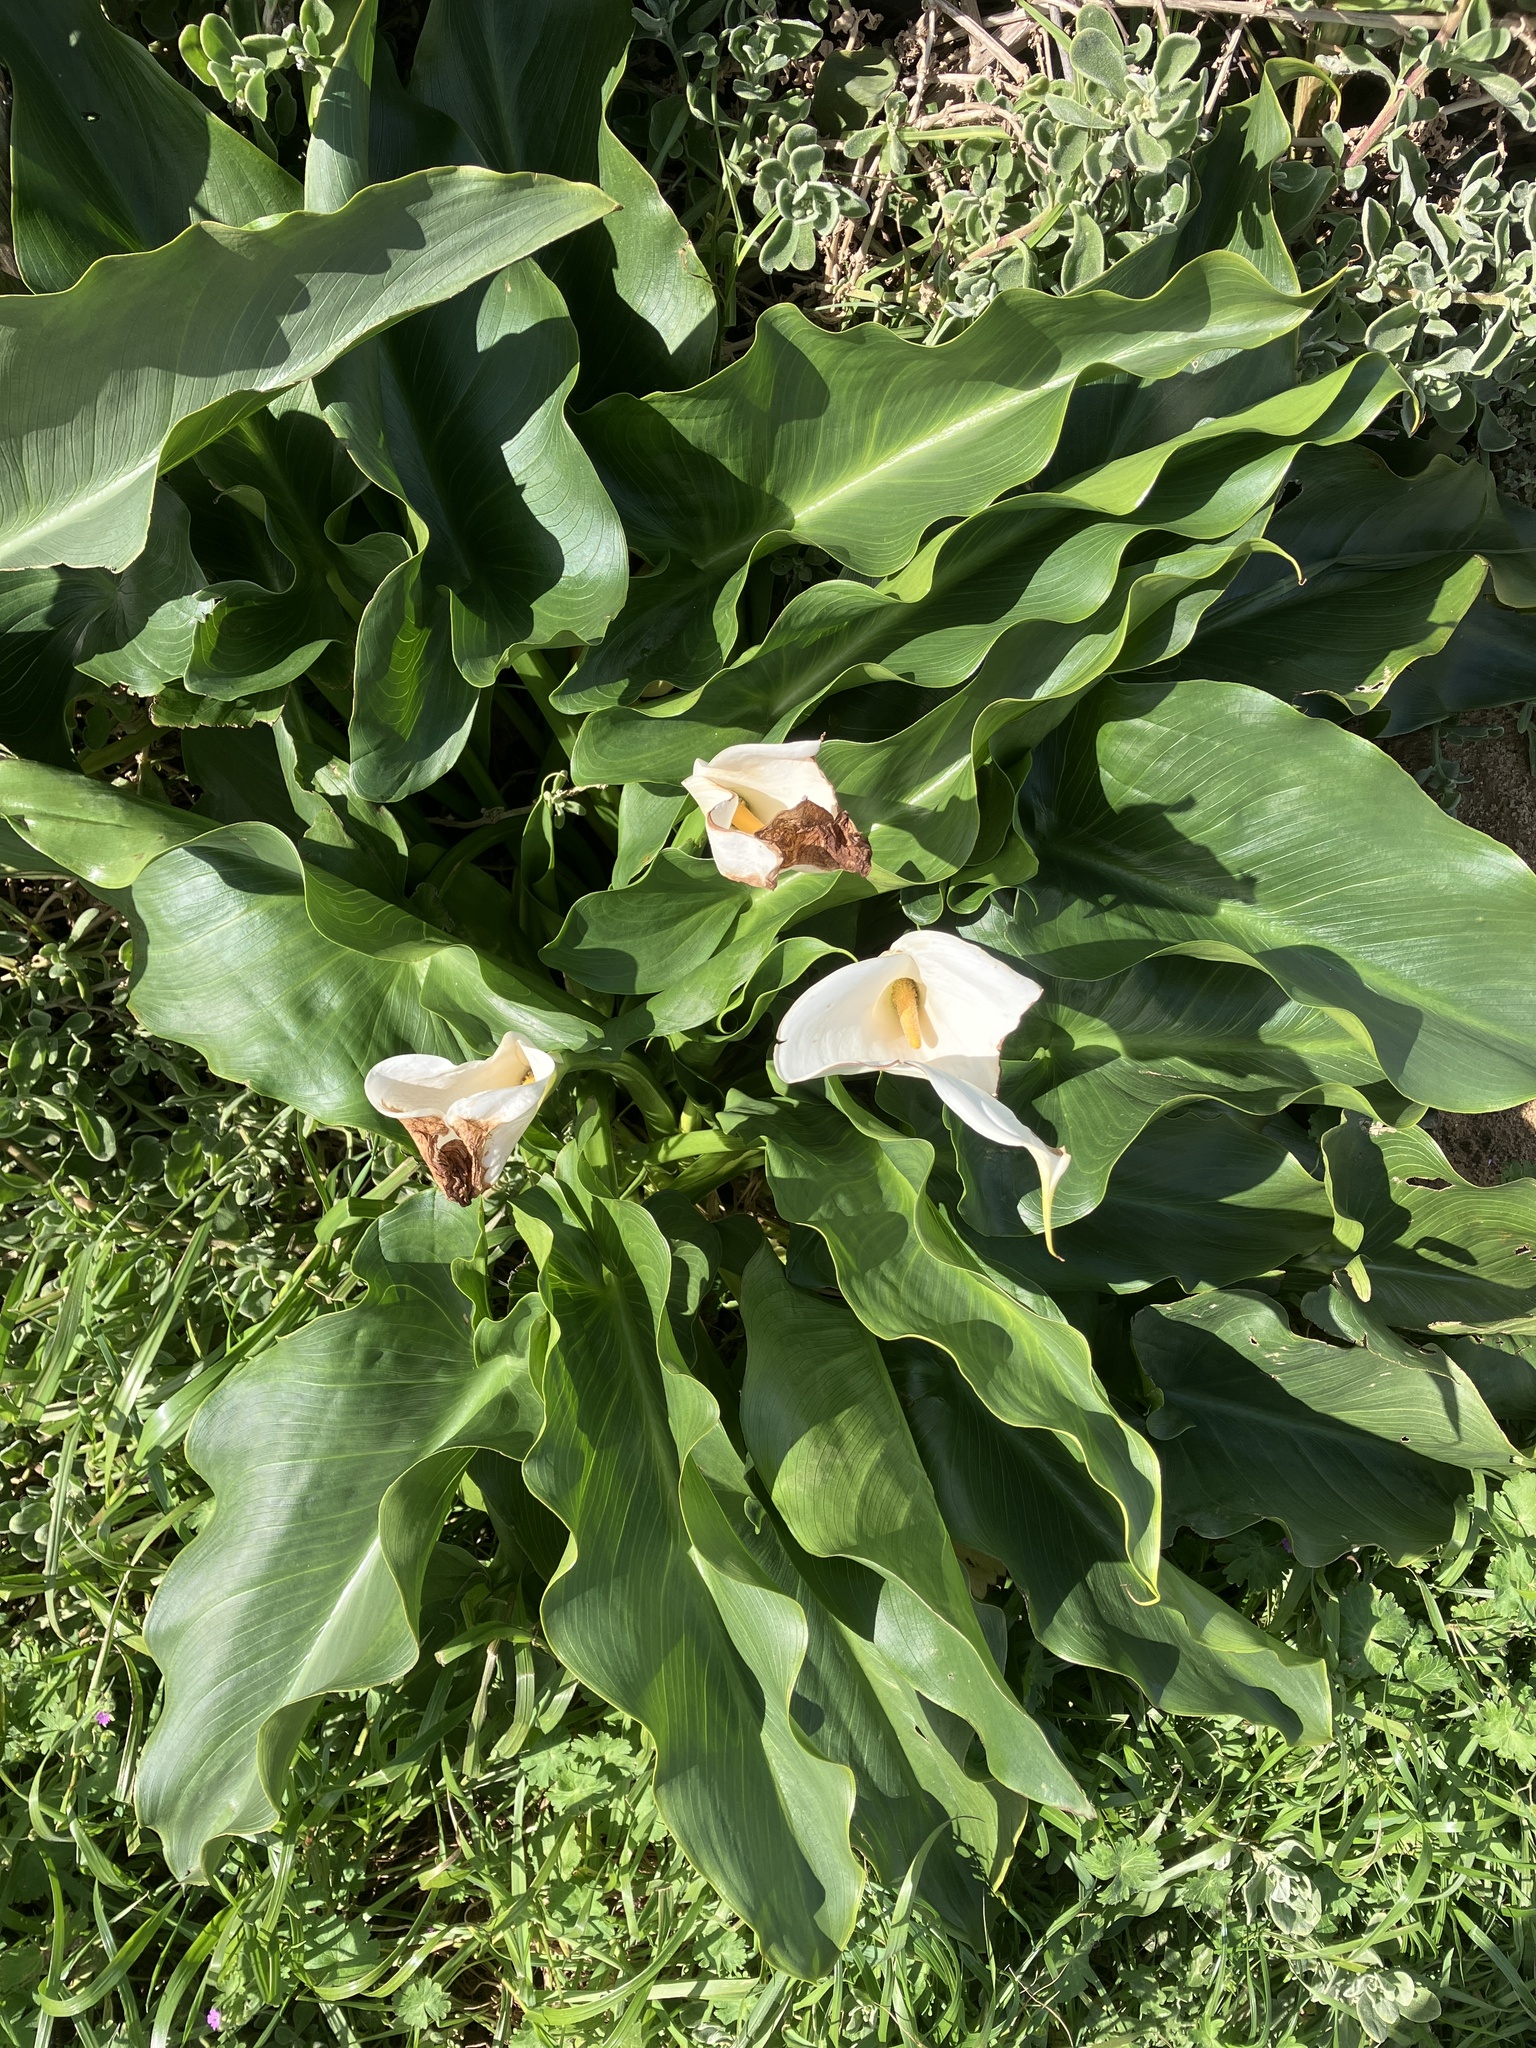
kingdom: Plantae
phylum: Tracheophyta
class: Liliopsida
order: Alismatales
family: Araceae
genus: Zantedeschia
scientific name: Zantedeschia aethiopica
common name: Altar-lily
